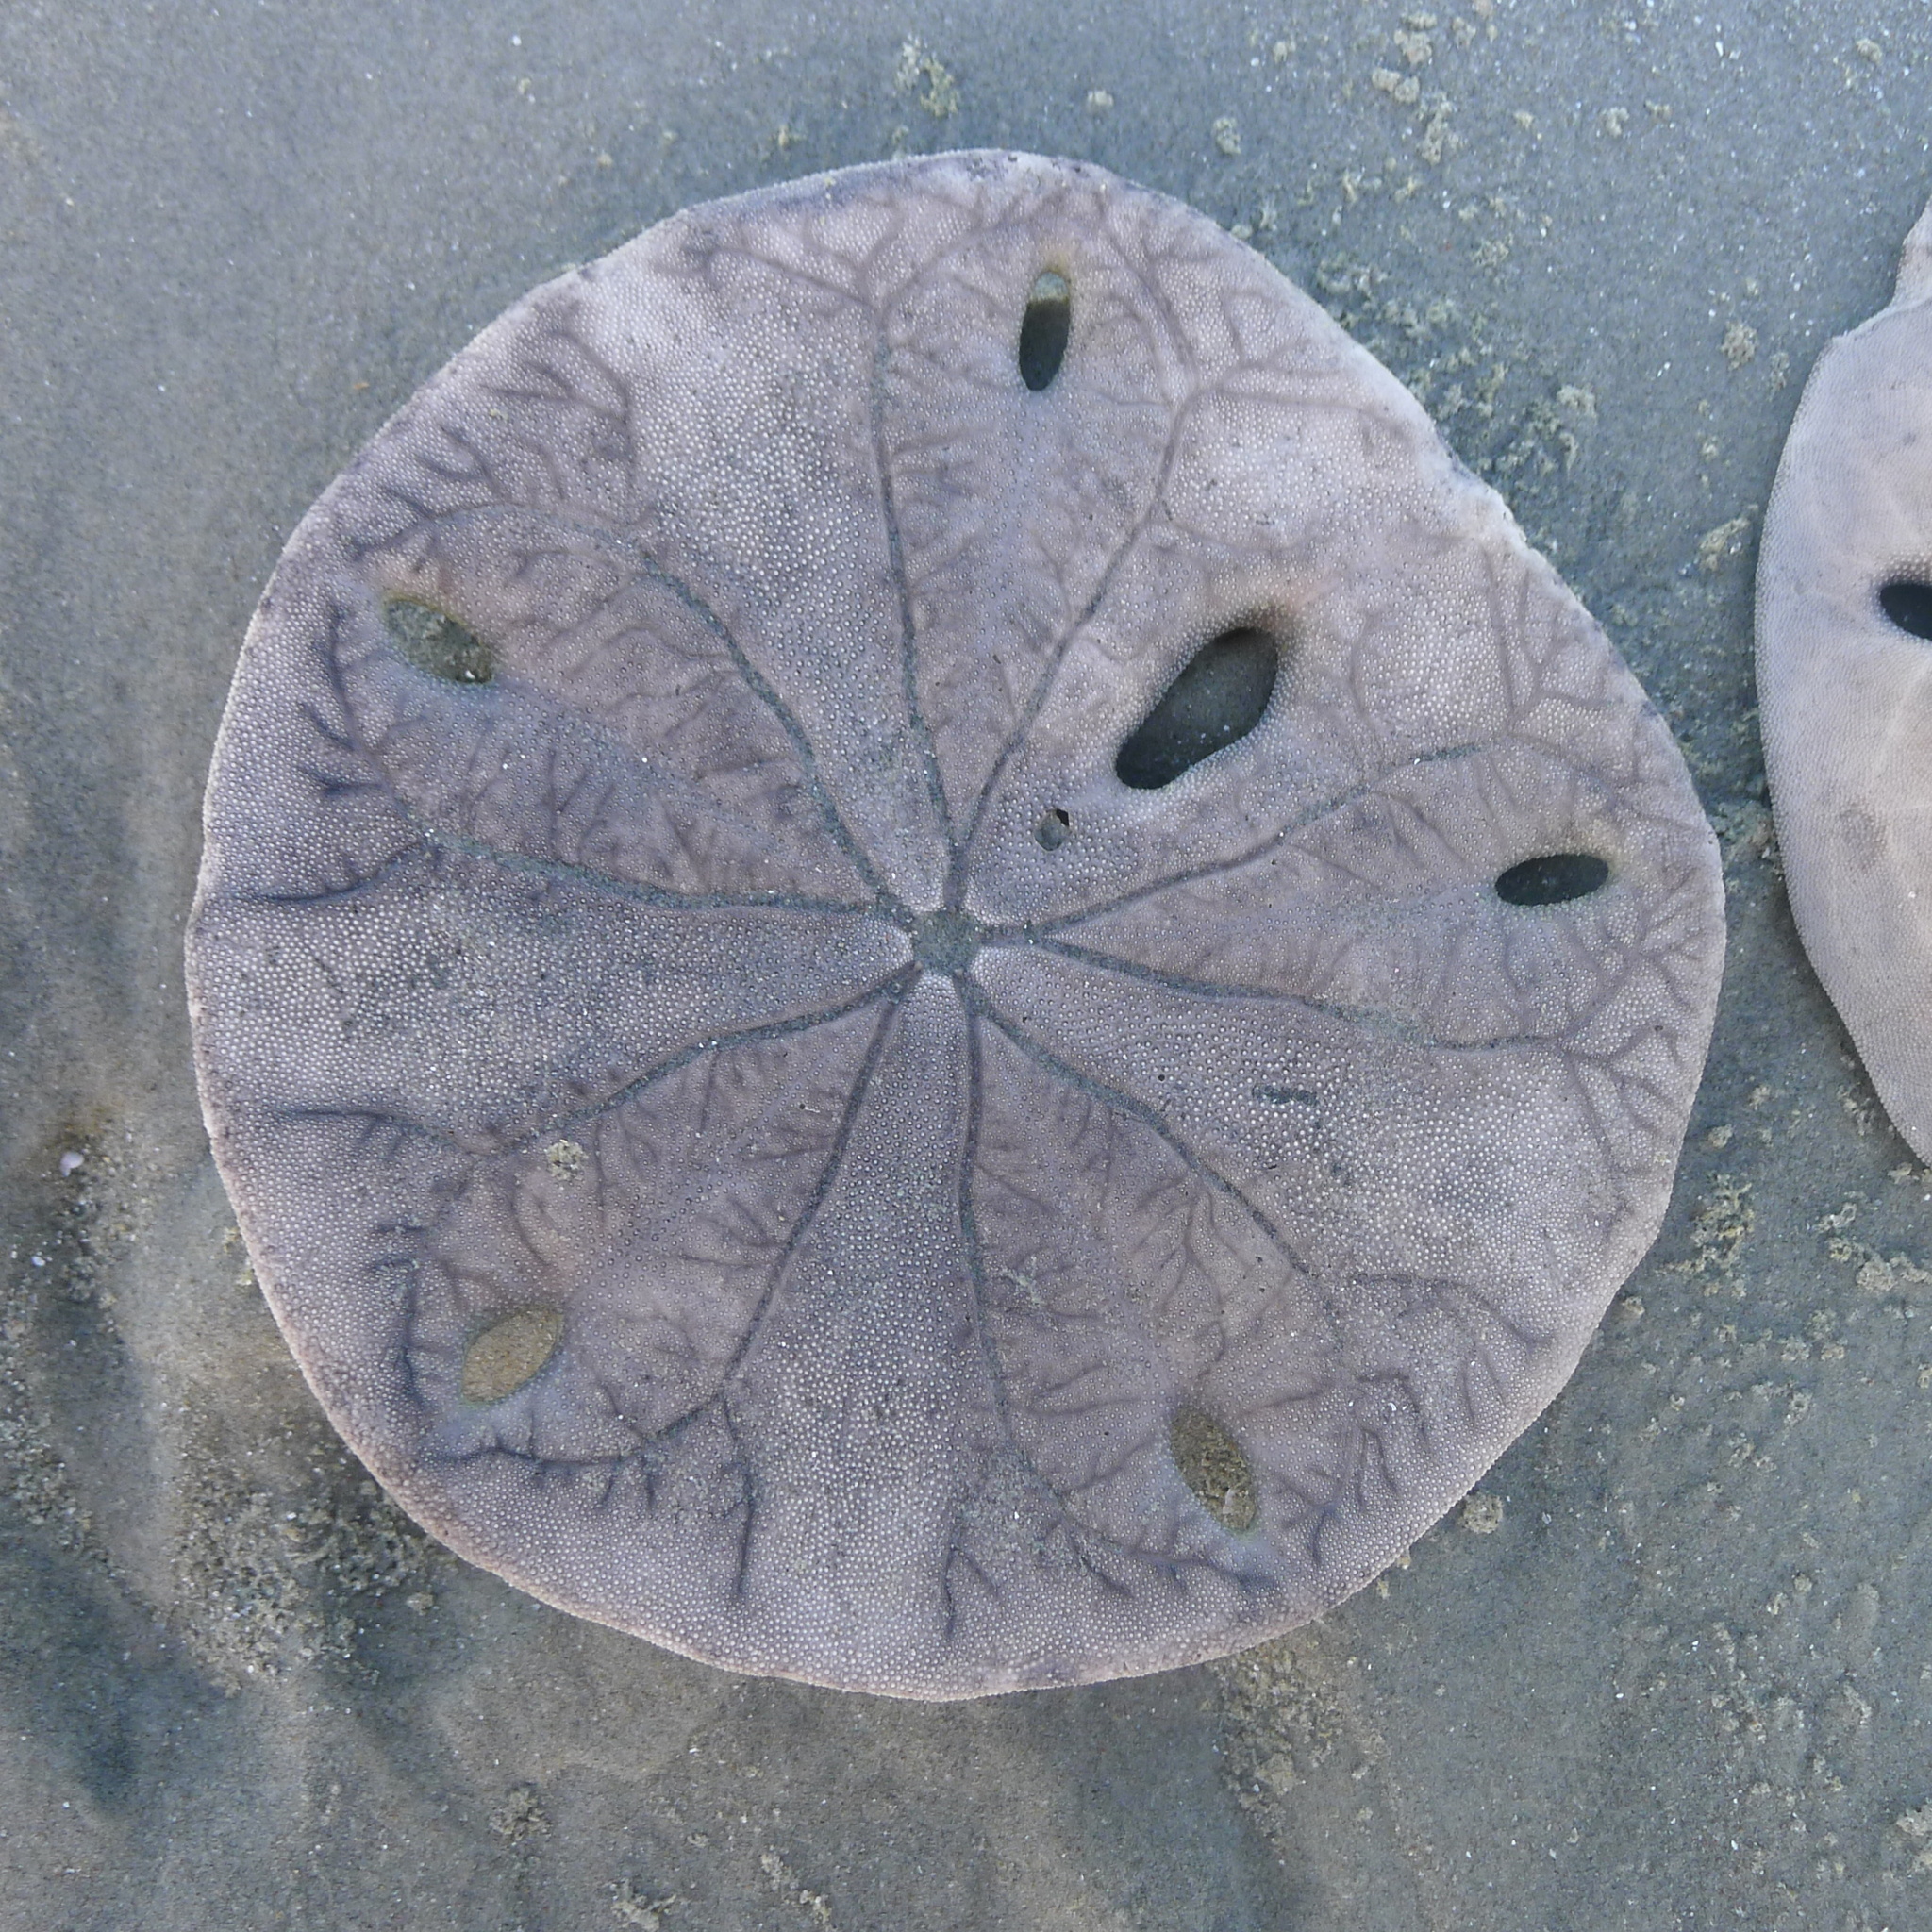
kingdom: Animalia
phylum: Echinodermata
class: Echinoidea
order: Echinolampadacea
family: Mellitidae
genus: Encope
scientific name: Encope micropora
